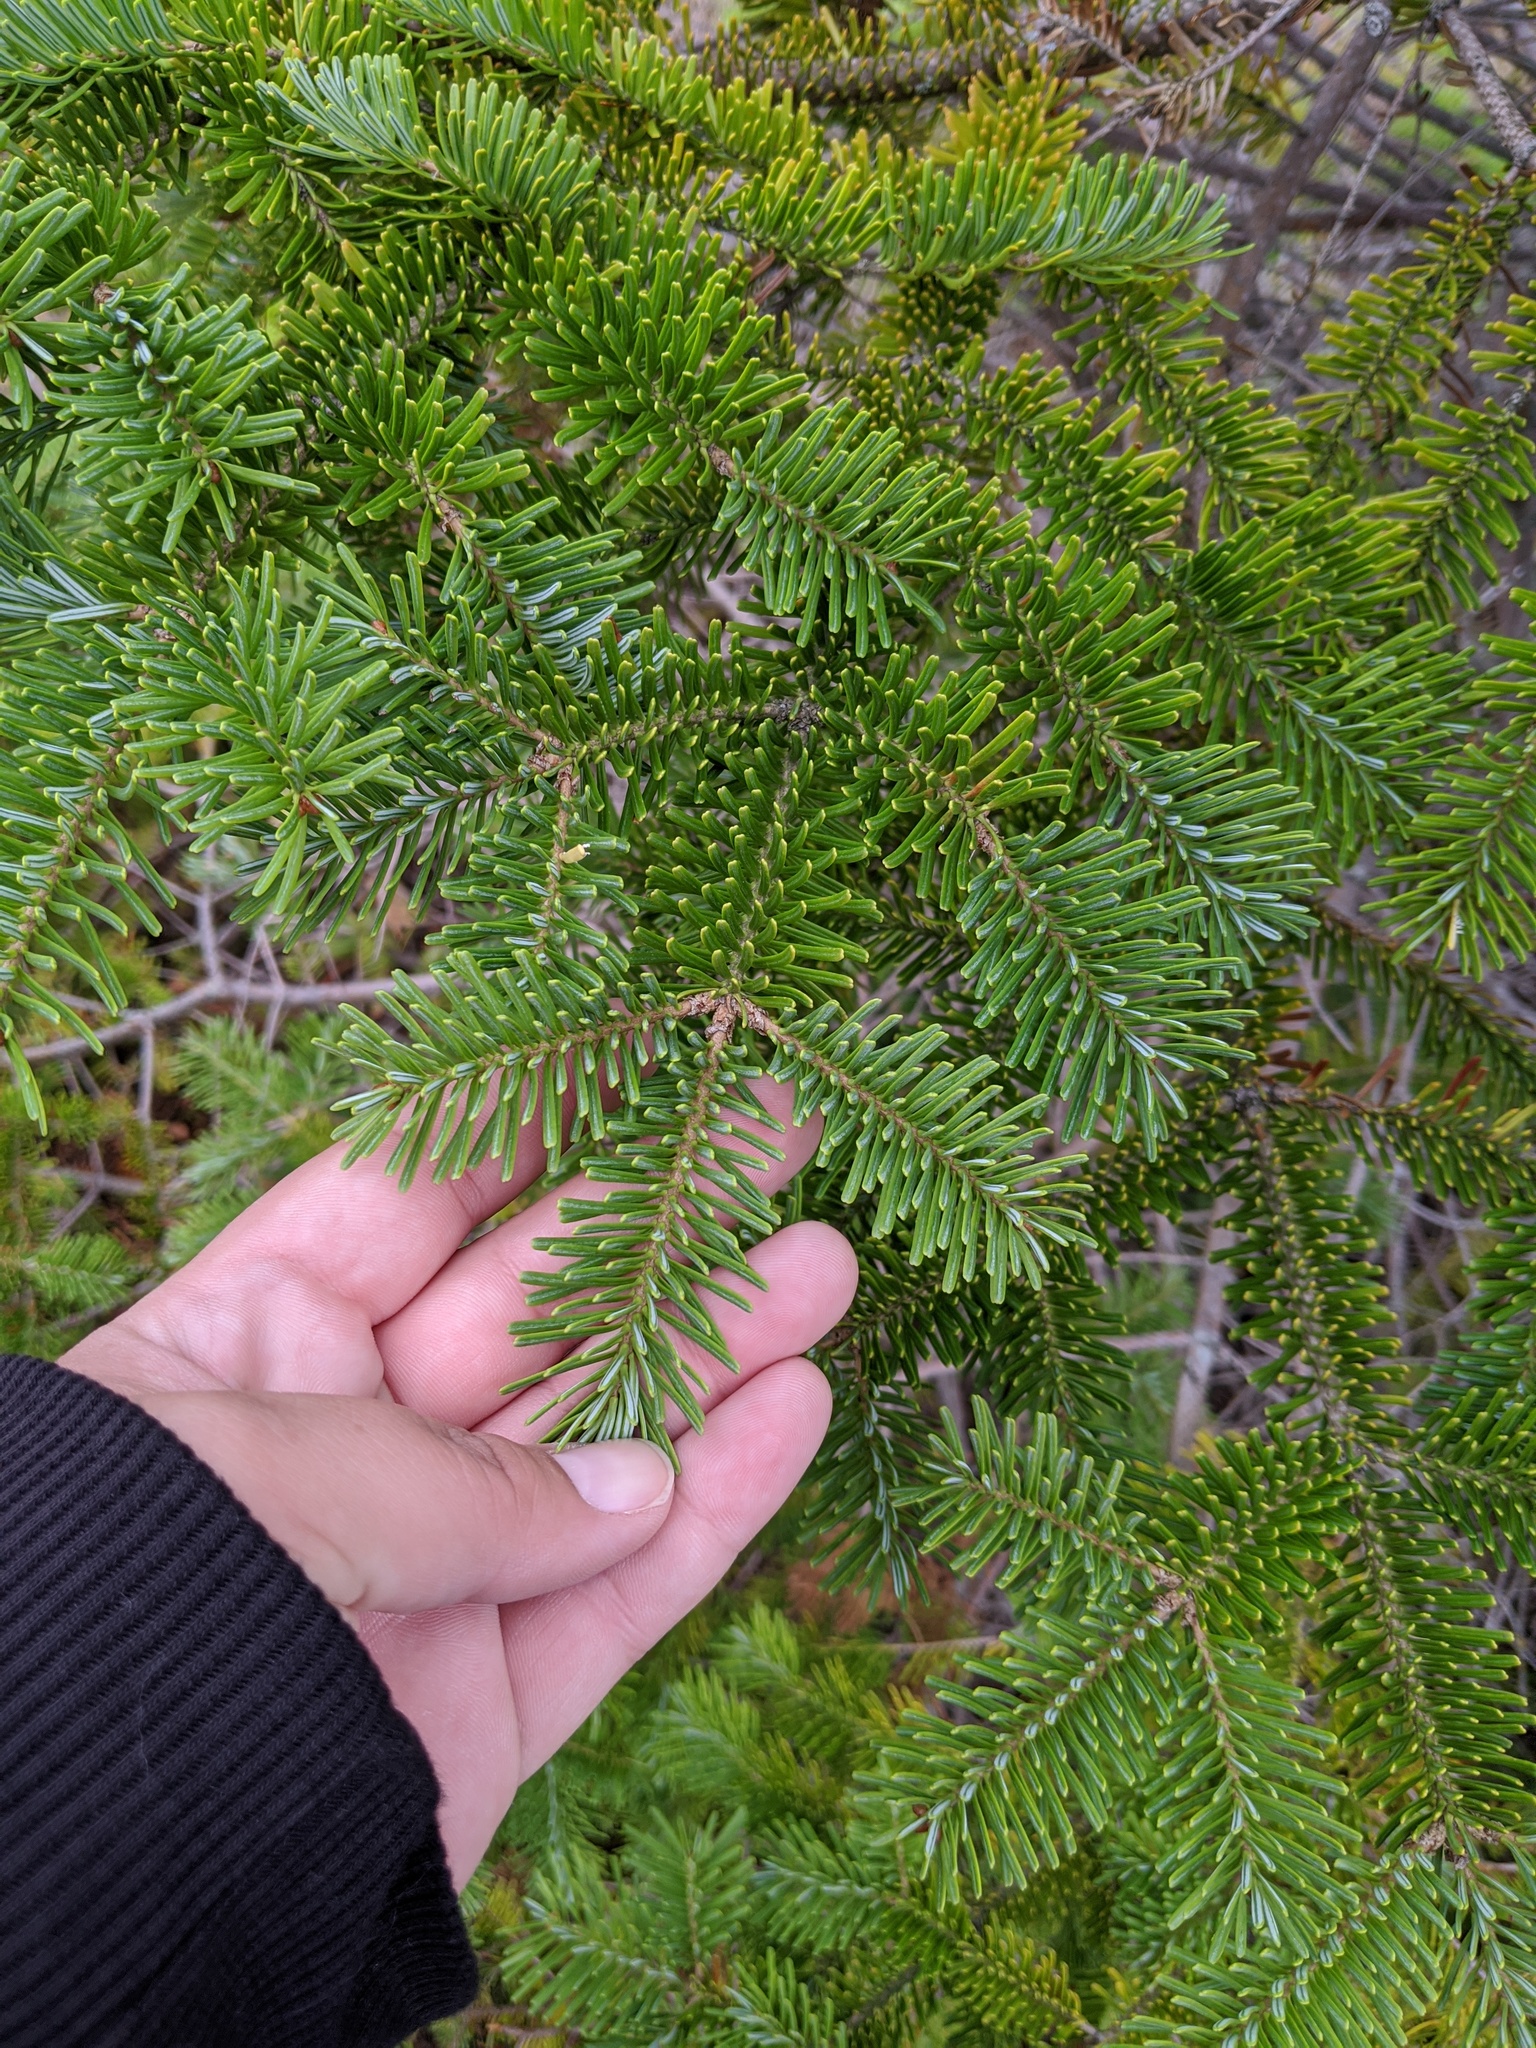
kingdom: Plantae
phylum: Tracheophyta
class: Pinopsida
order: Pinales
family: Pinaceae
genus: Abies
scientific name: Abies balsamea
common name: Balsam fir
